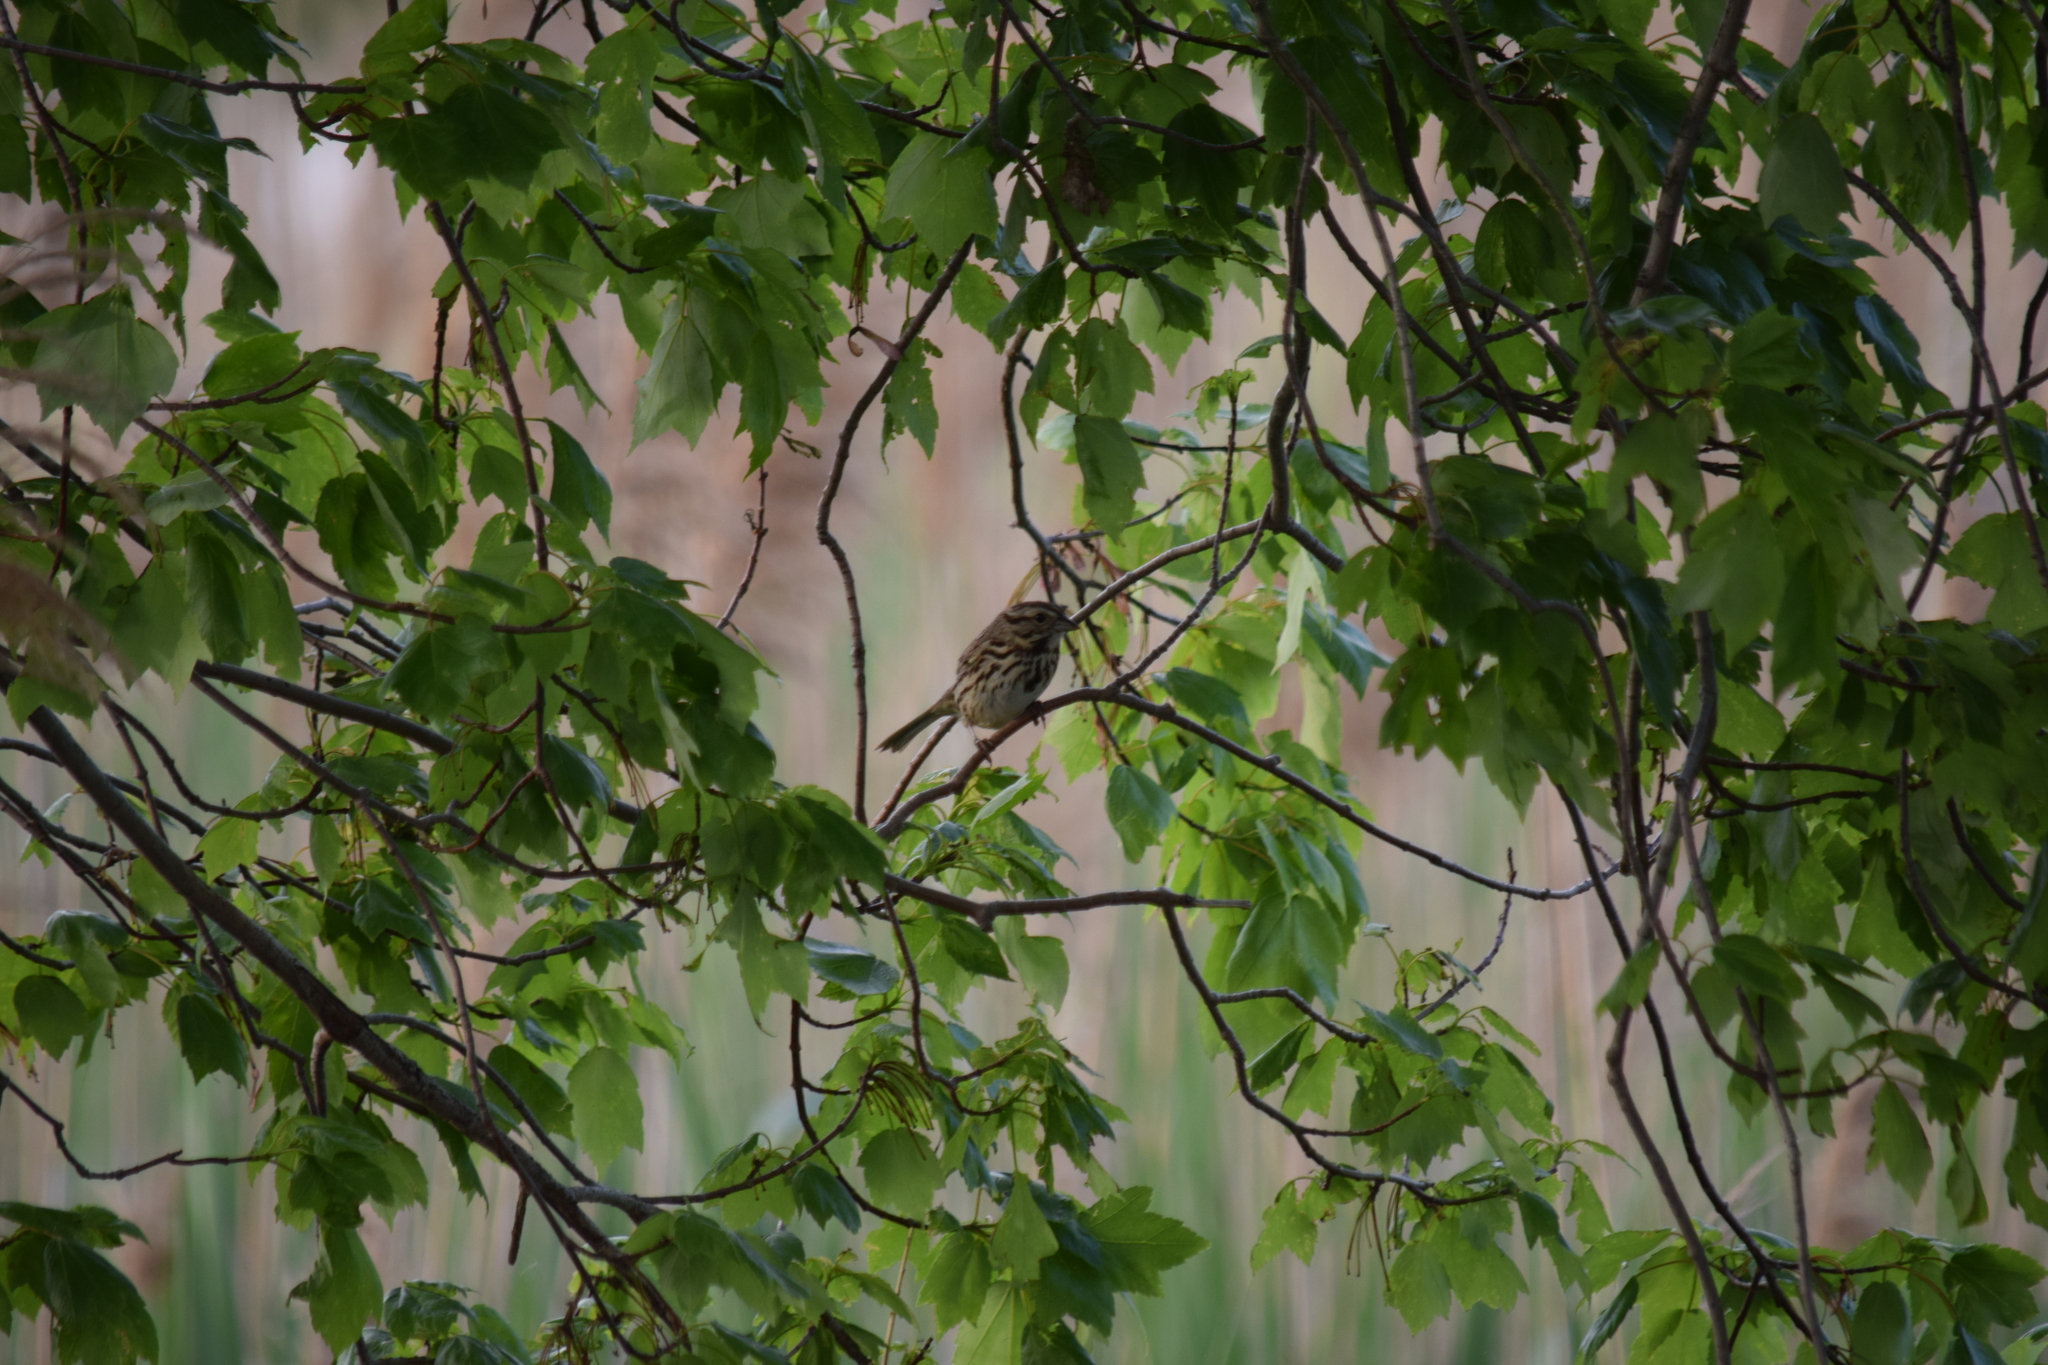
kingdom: Animalia
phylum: Chordata
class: Aves
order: Passeriformes
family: Passerellidae
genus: Melospiza
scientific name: Melospiza melodia
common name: Song sparrow
